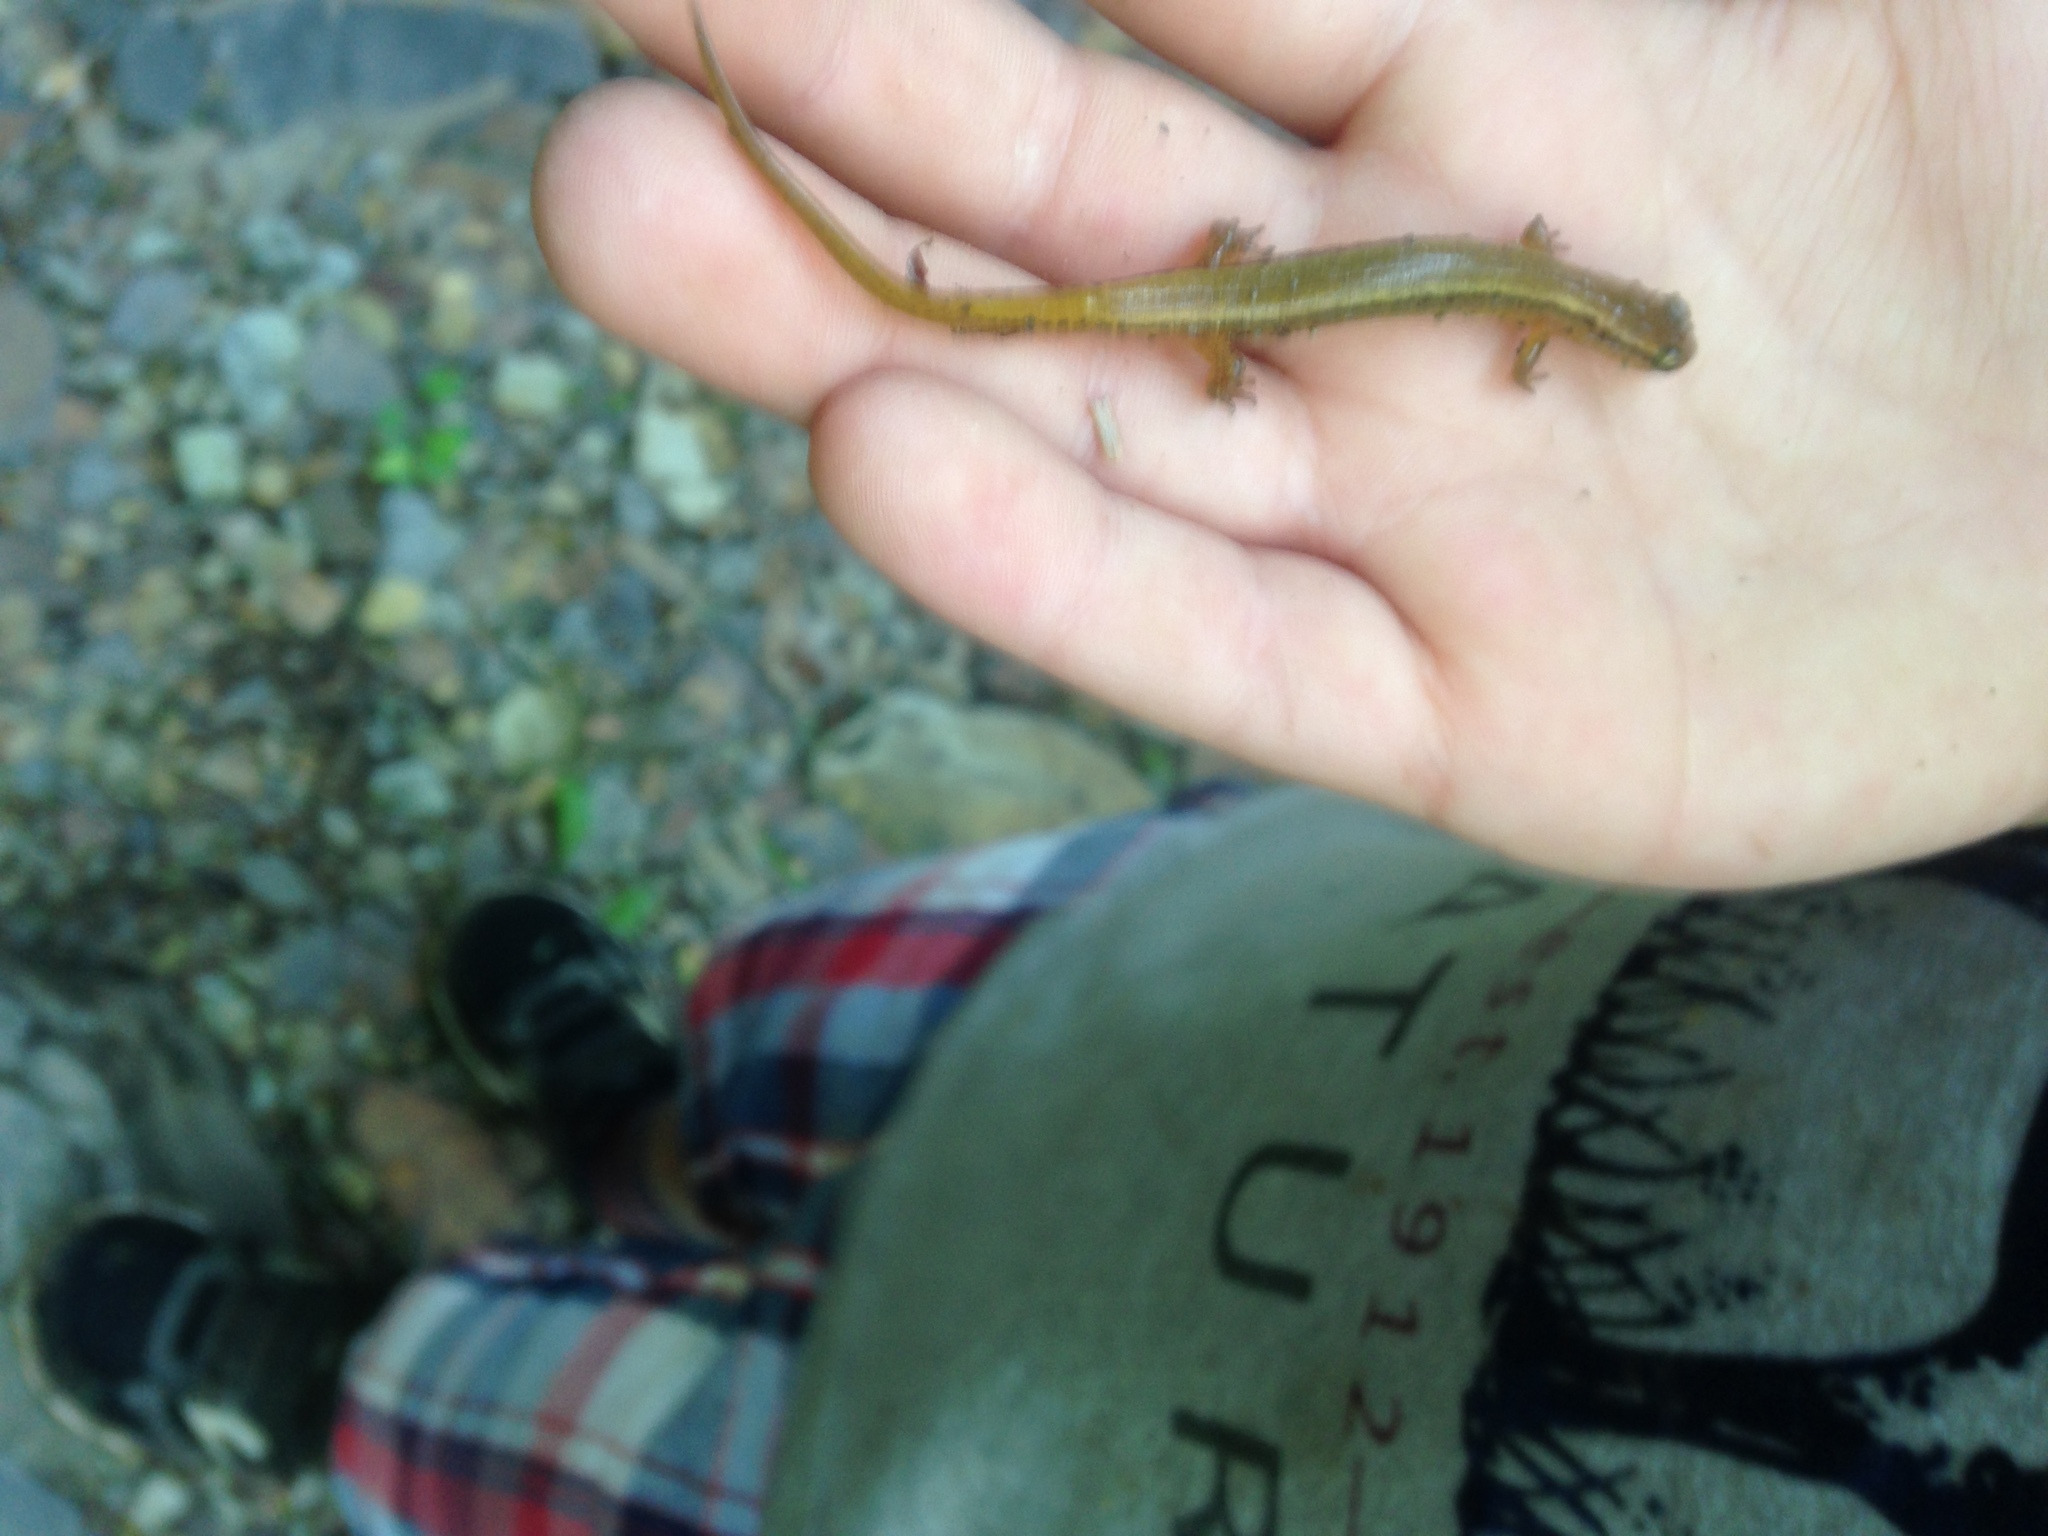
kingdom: Animalia
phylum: Chordata
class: Amphibia
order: Caudata
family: Plethodontidae
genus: Eurycea
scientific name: Eurycea bislineata
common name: Northern two-lined salamander
